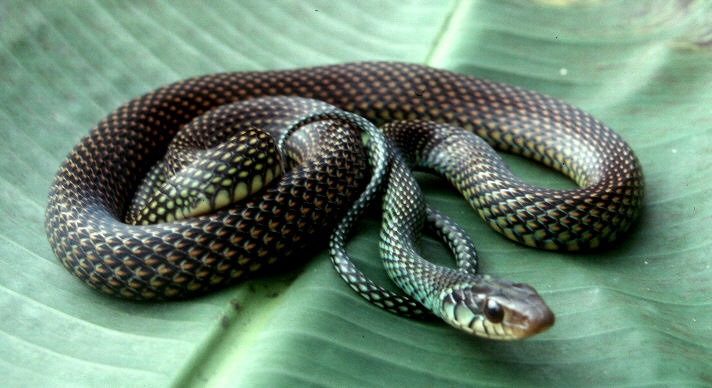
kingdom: Animalia
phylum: Chordata
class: Squamata
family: Colubridae
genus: Drymobius
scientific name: Drymobius margaritiferus
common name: Central american speckled racer
